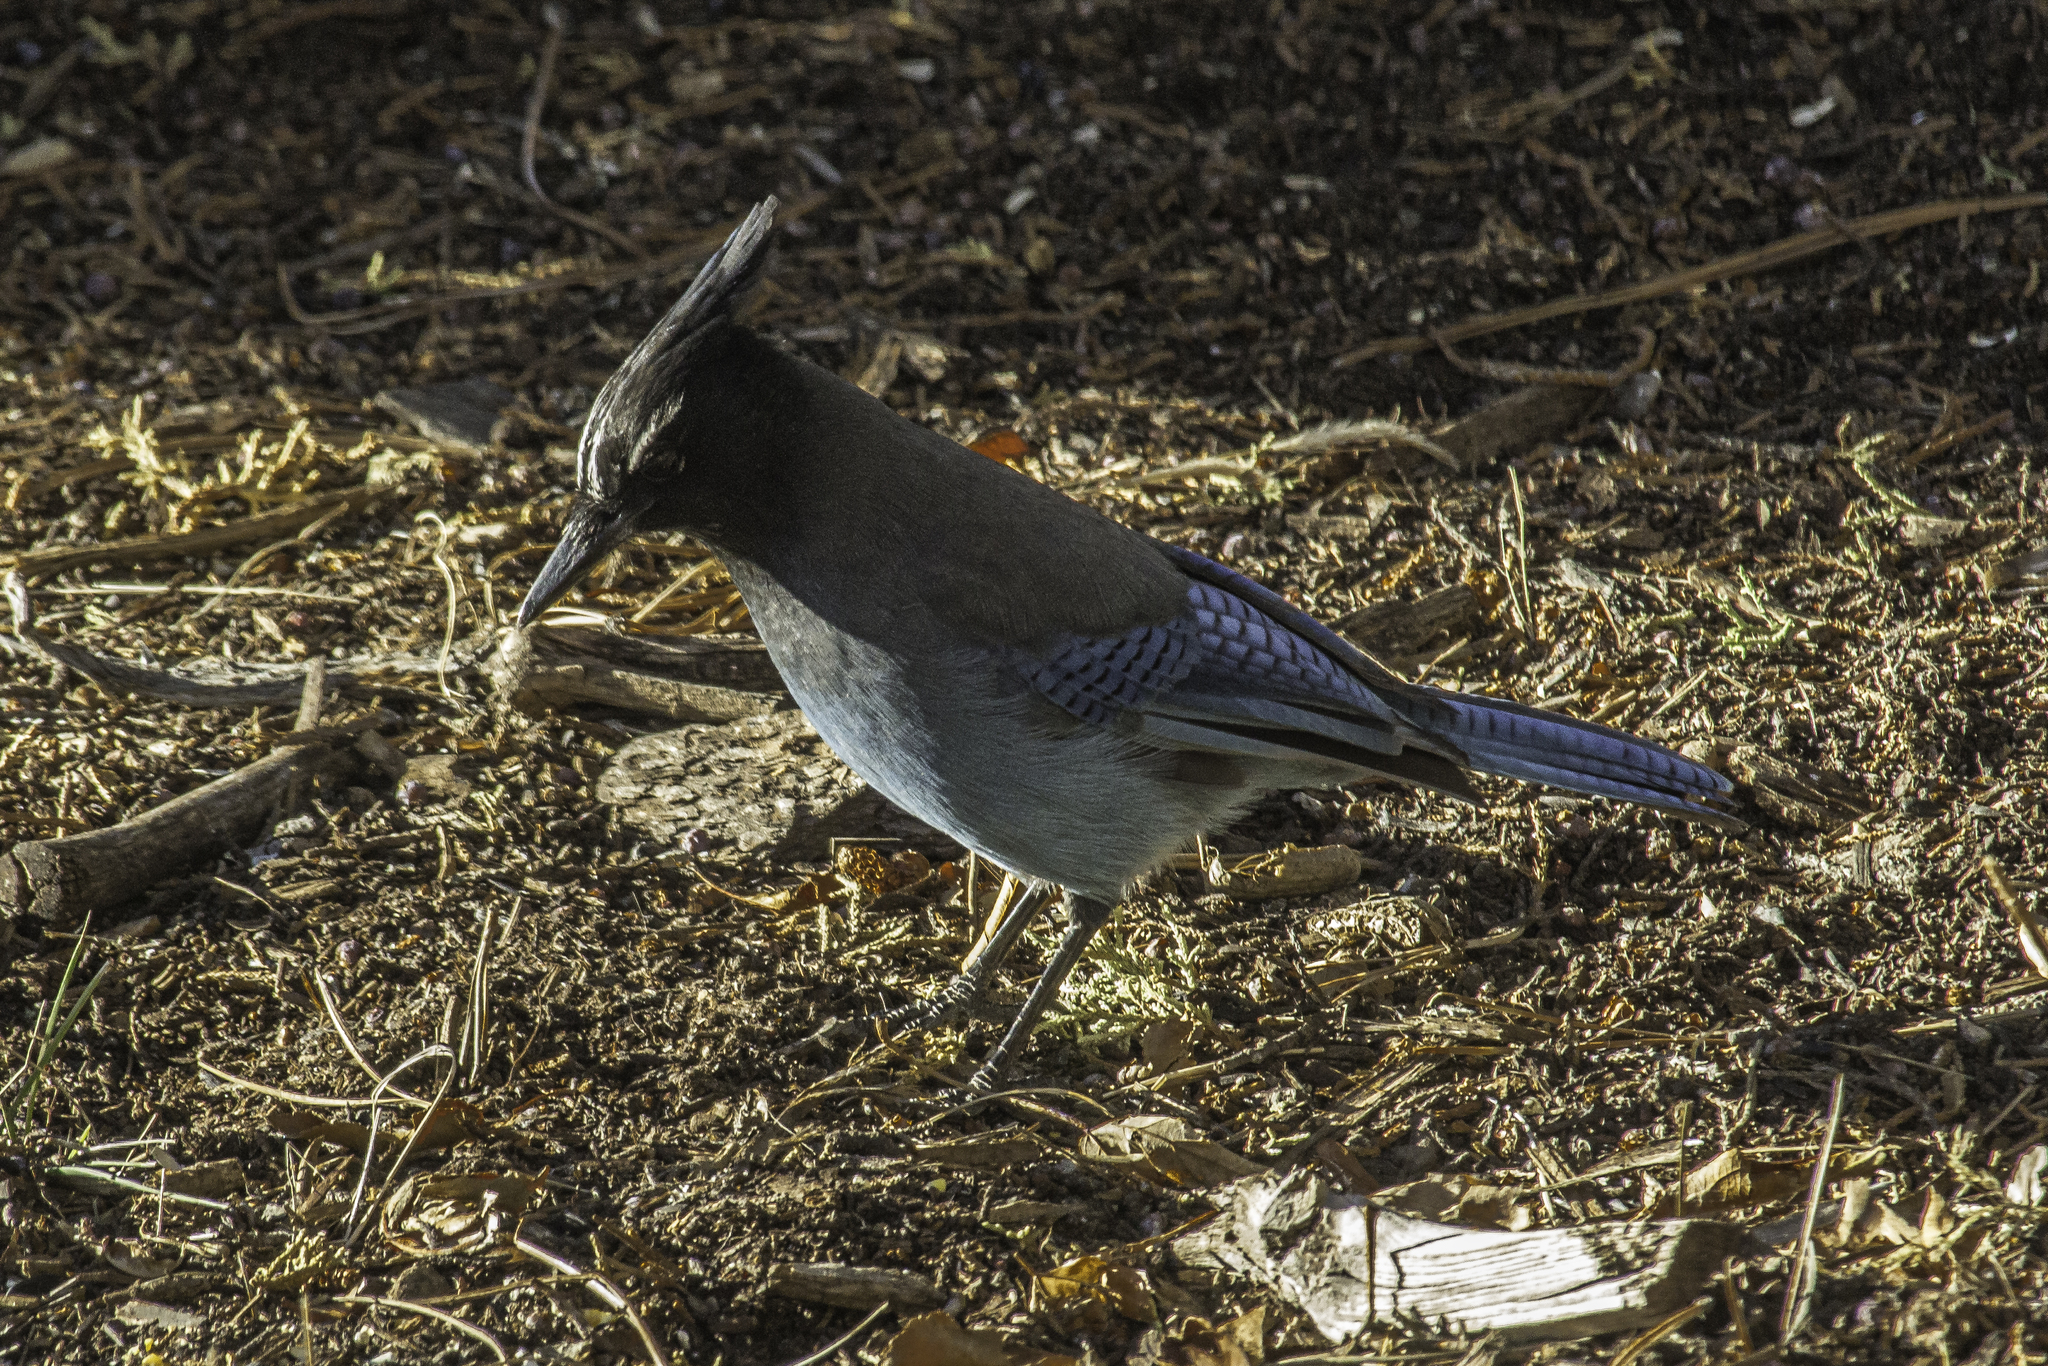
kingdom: Animalia
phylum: Chordata
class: Aves
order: Passeriformes
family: Corvidae
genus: Cyanocitta
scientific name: Cyanocitta stelleri
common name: Steller's jay
